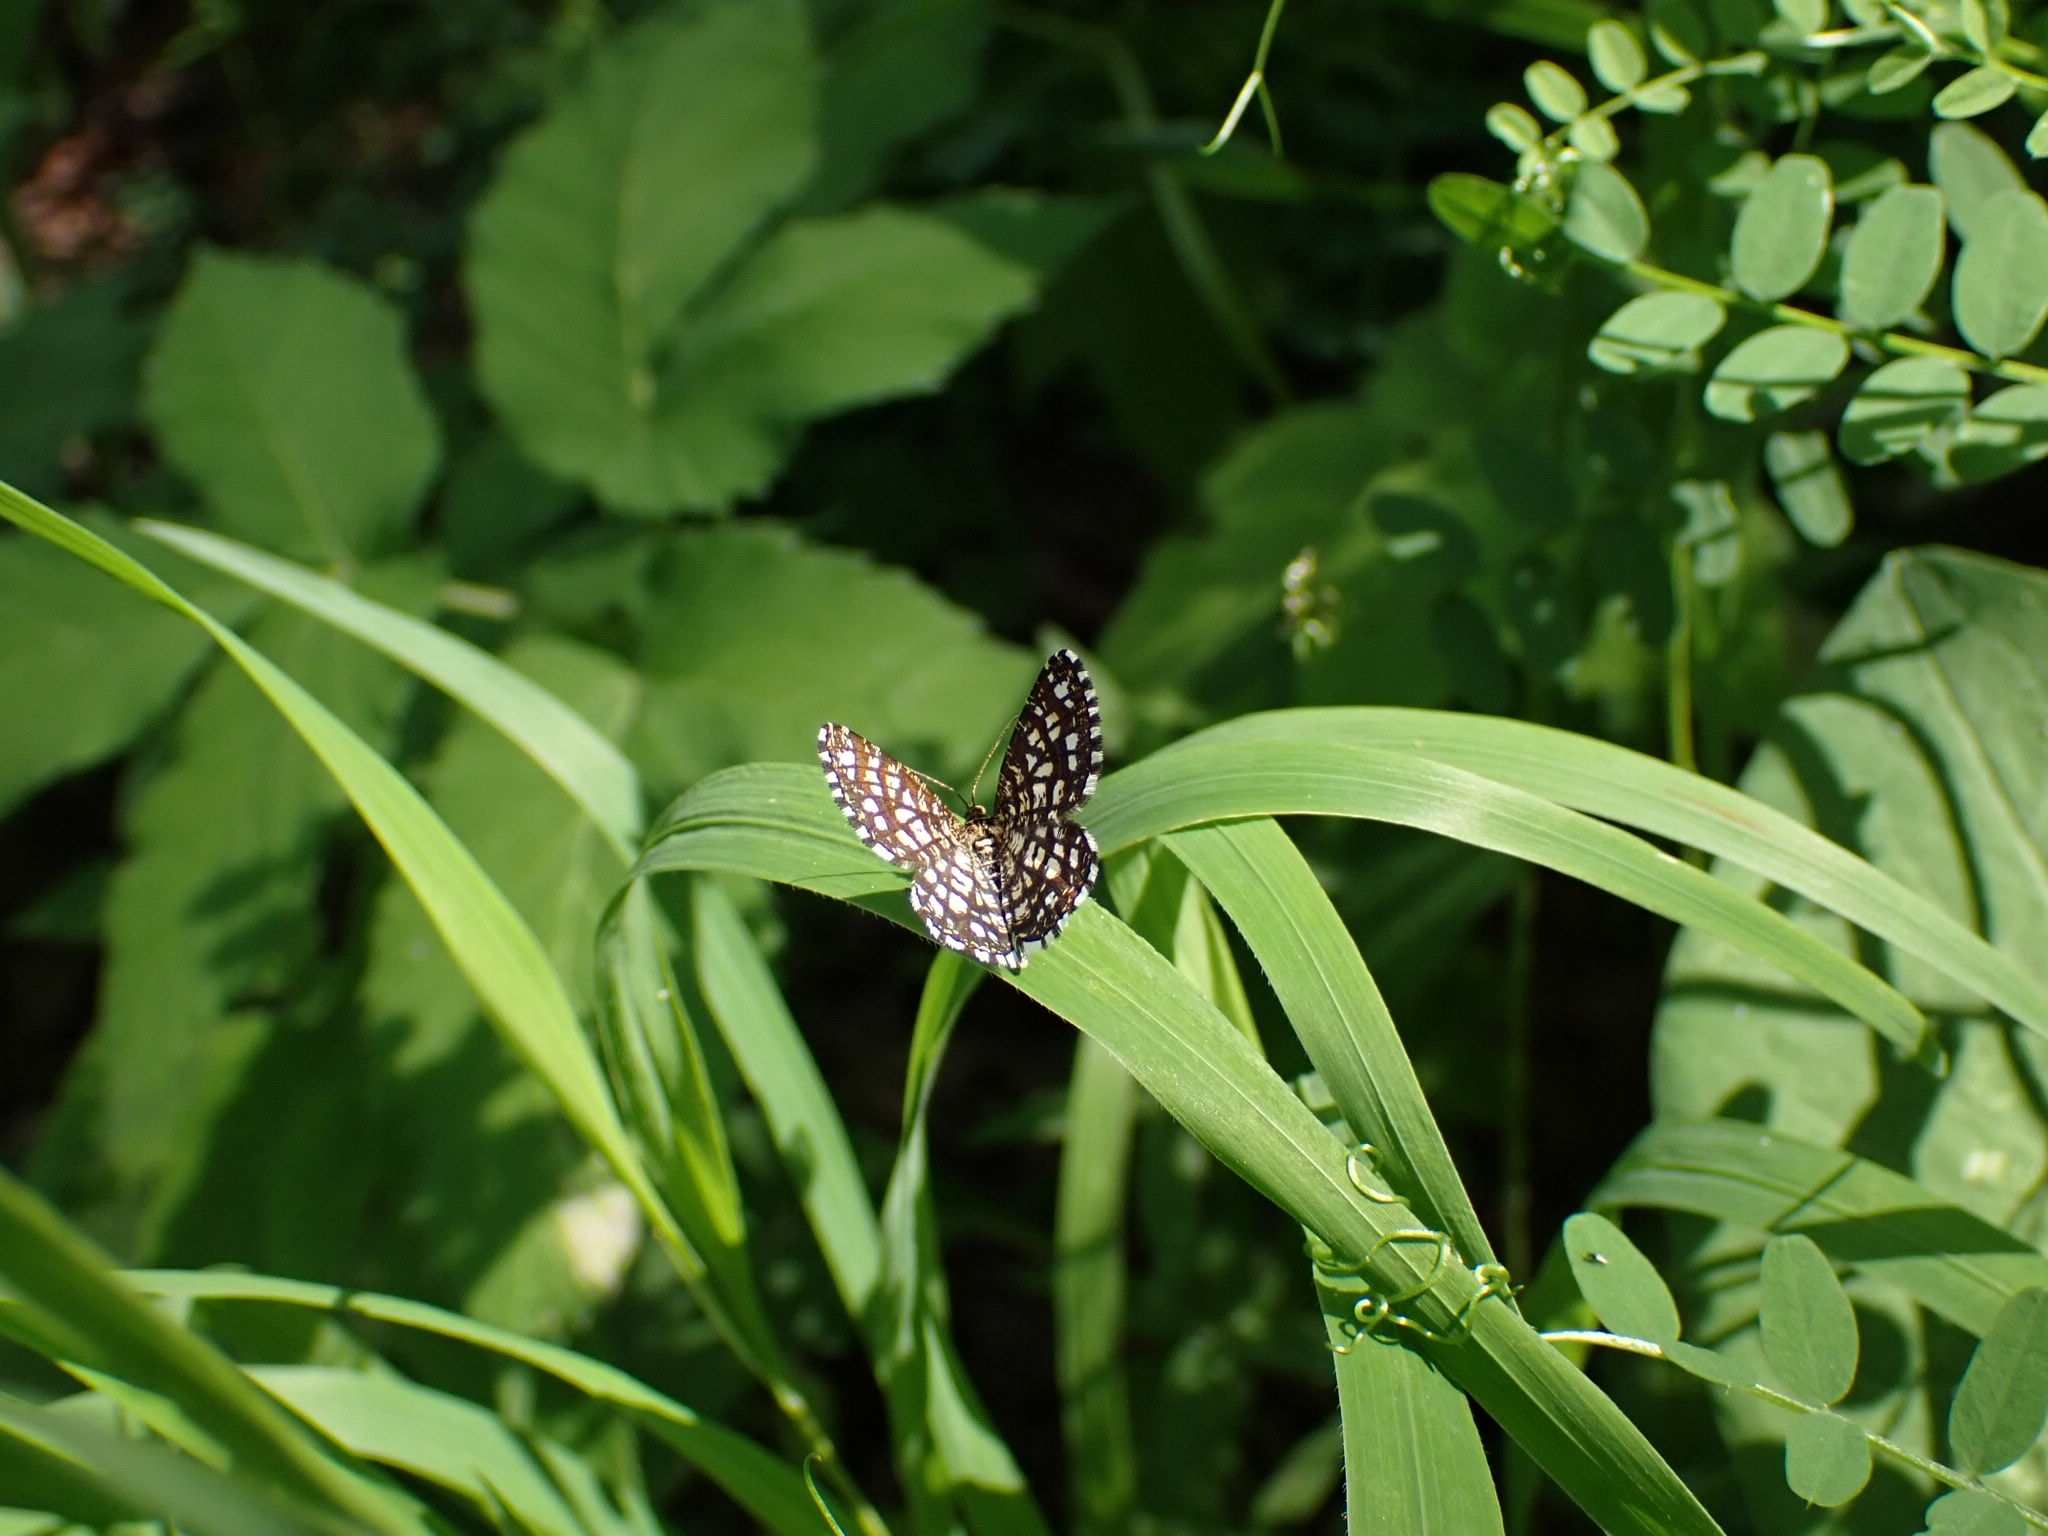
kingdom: Animalia
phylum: Arthropoda
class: Insecta
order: Lepidoptera
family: Geometridae
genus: Chiasmia
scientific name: Chiasmia clathrata
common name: Latticed heath
